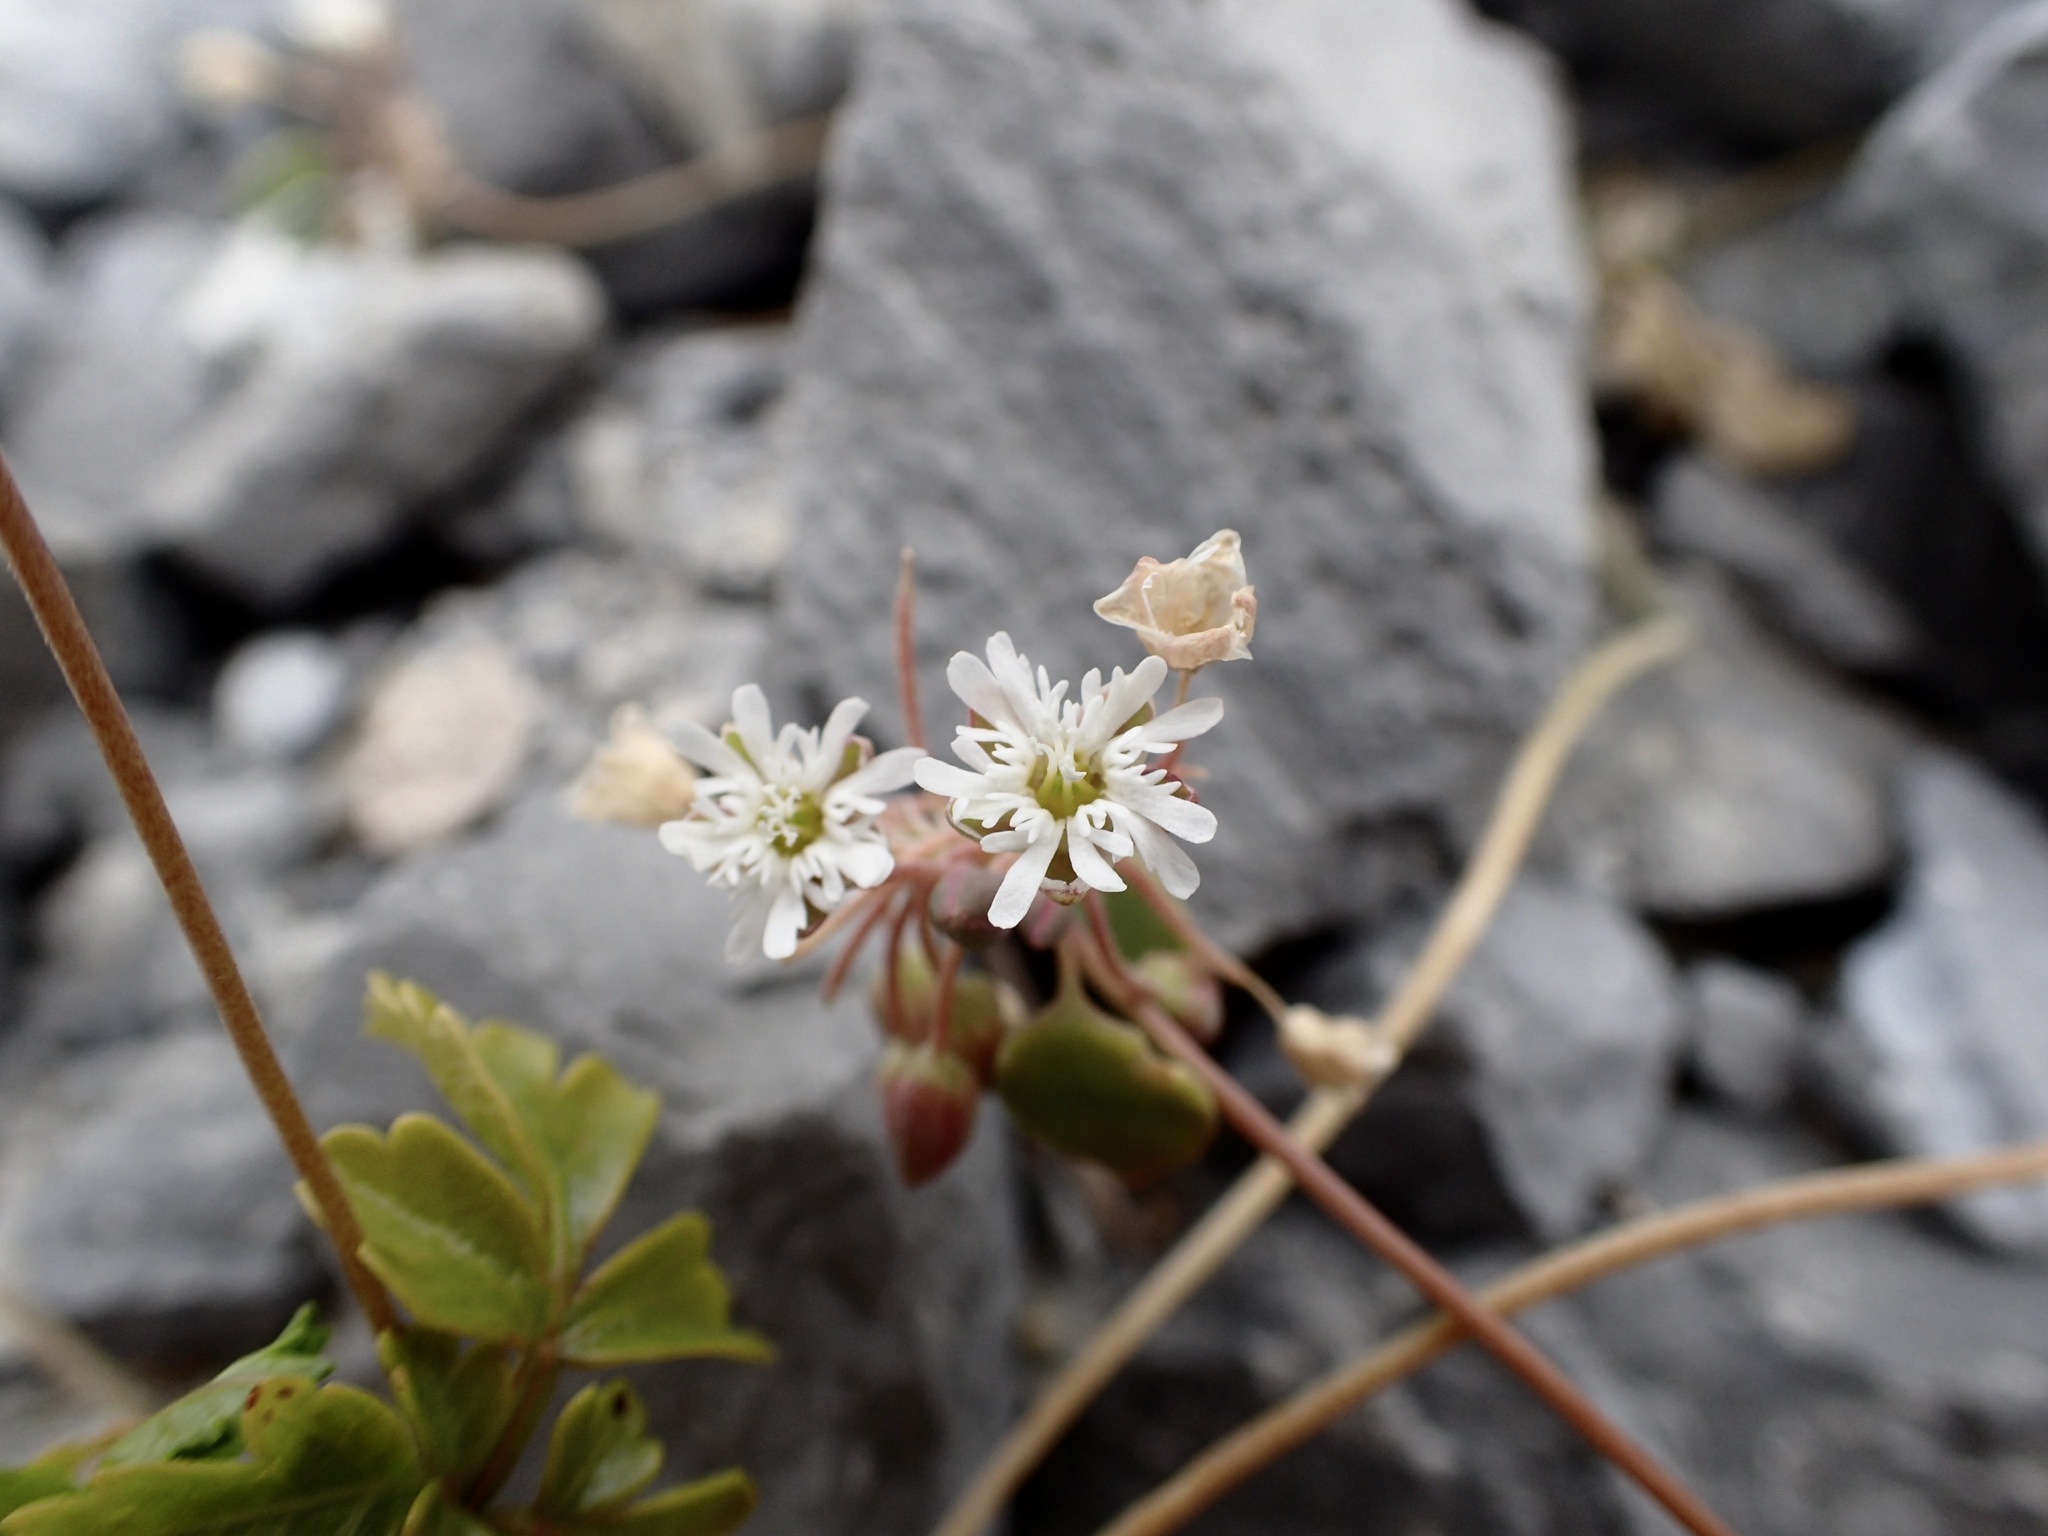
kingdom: Plantae
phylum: Tracheophyta
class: Magnoliopsida
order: Caryophyllales
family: Caryophyllaceae
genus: Drymaria
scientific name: Drymaria holosteoides
